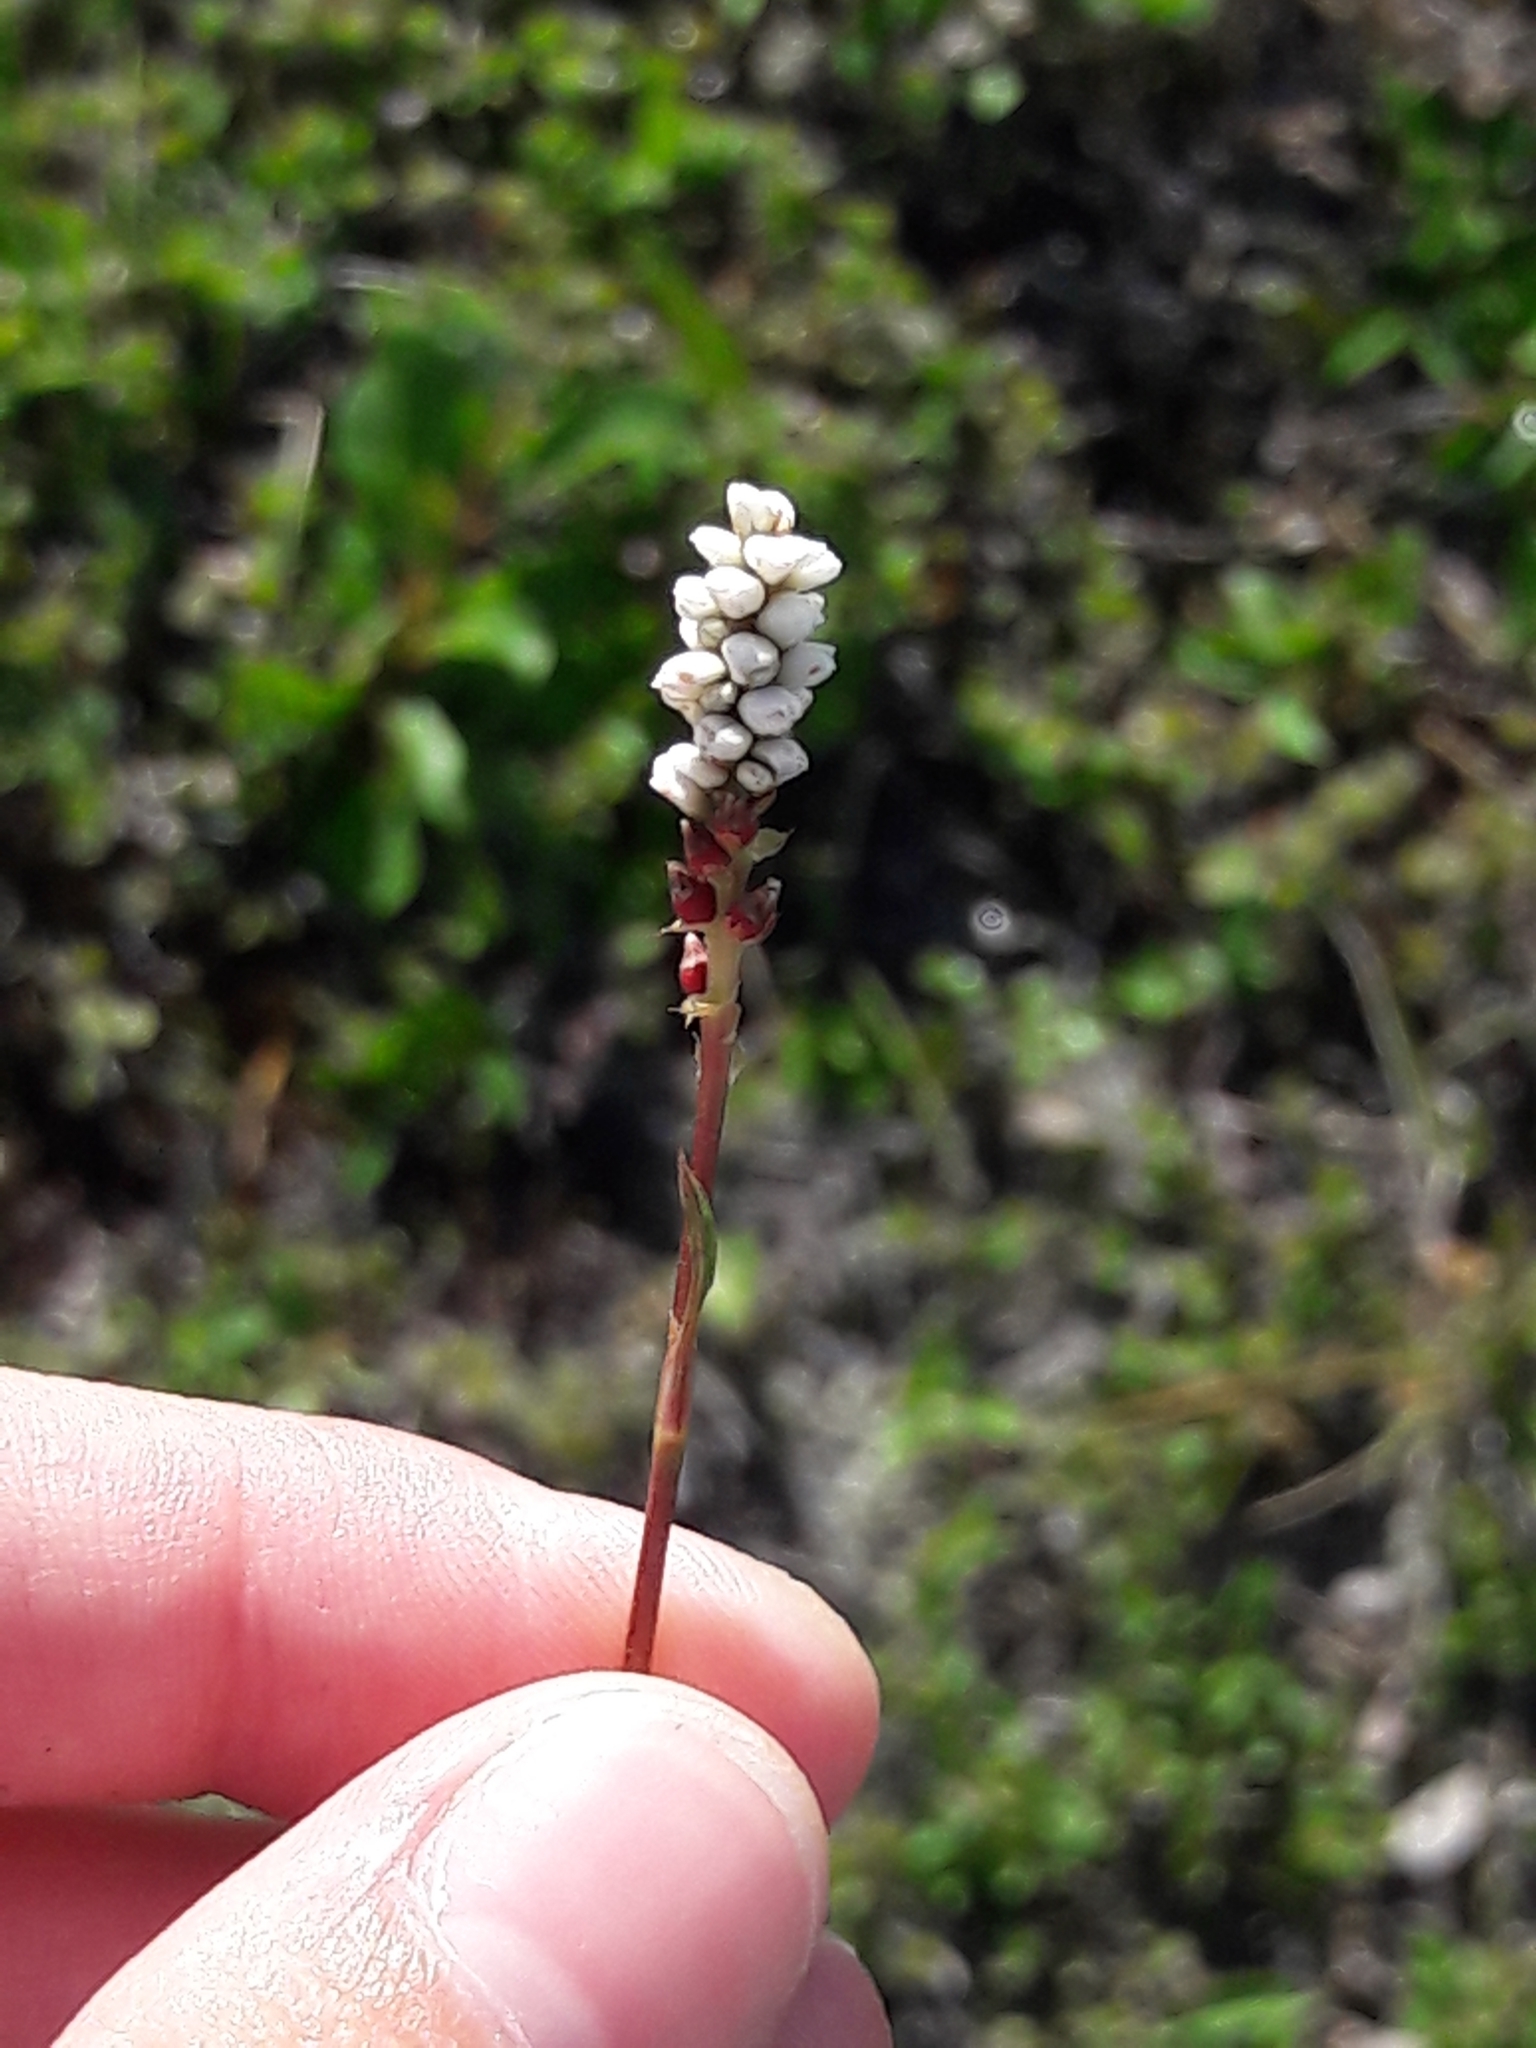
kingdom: Plantae
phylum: Tracheophyta
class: Magnoliopsida
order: Caryophyllales
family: Polygonaceae
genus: Bistorta
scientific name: Bistorta vivipara
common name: Alpine bistort
